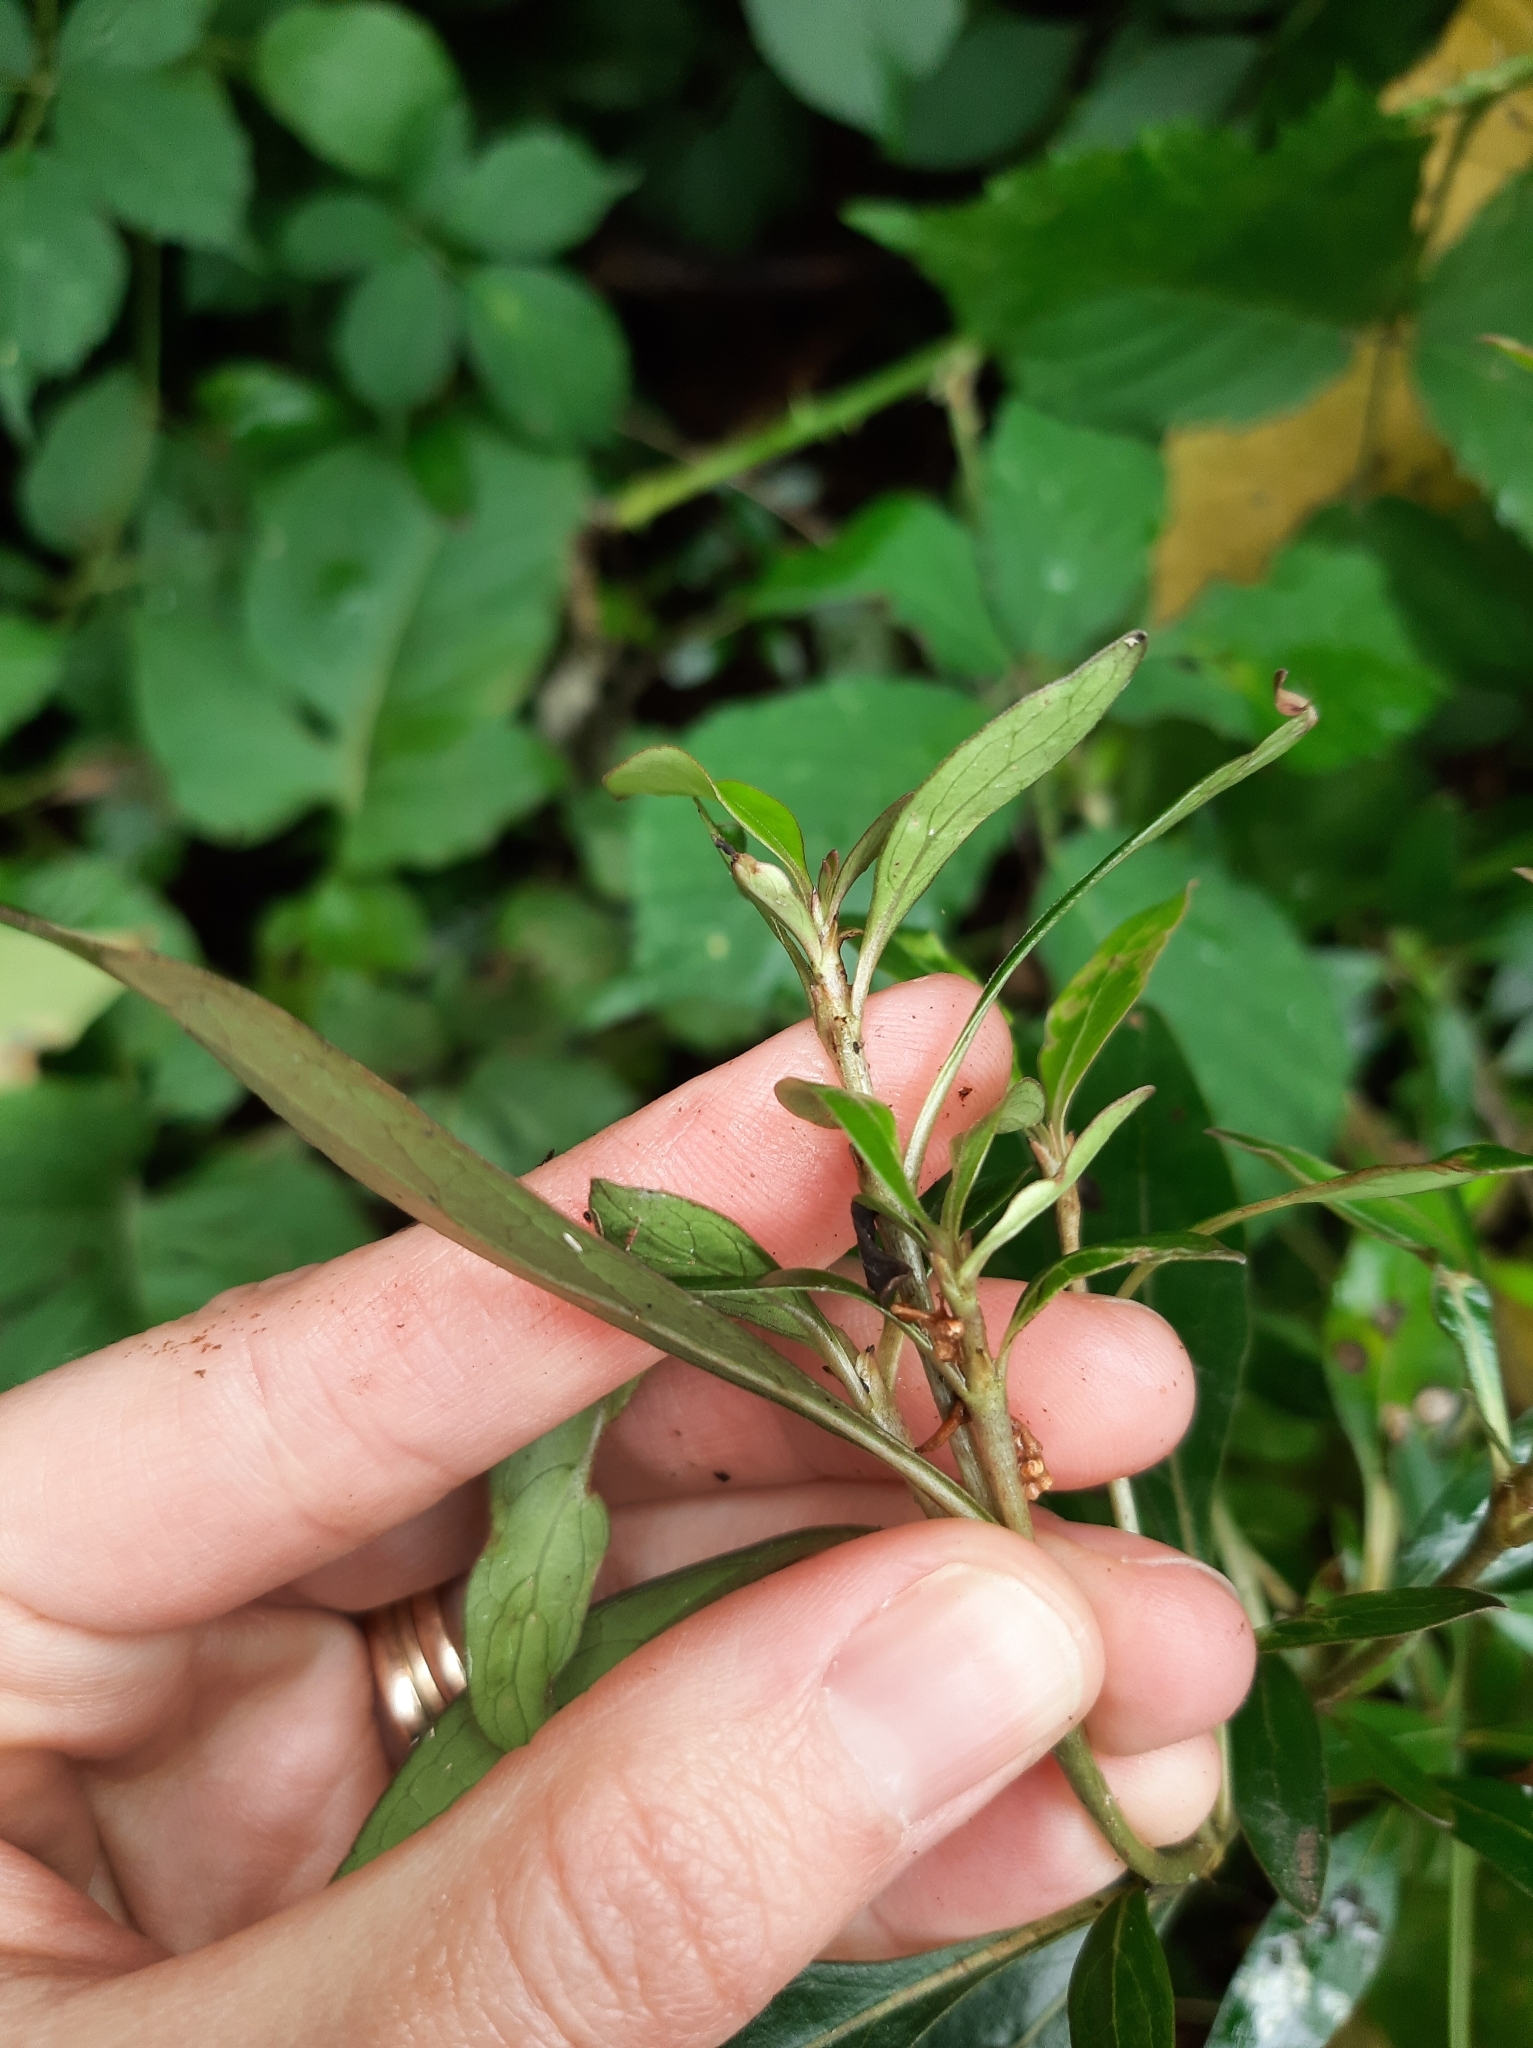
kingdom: Plantae
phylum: Tracheophyta
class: Magnoliopsida
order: Gentianales
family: Rubiaceae
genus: Coprosma
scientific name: Coprosma cunninghamii
